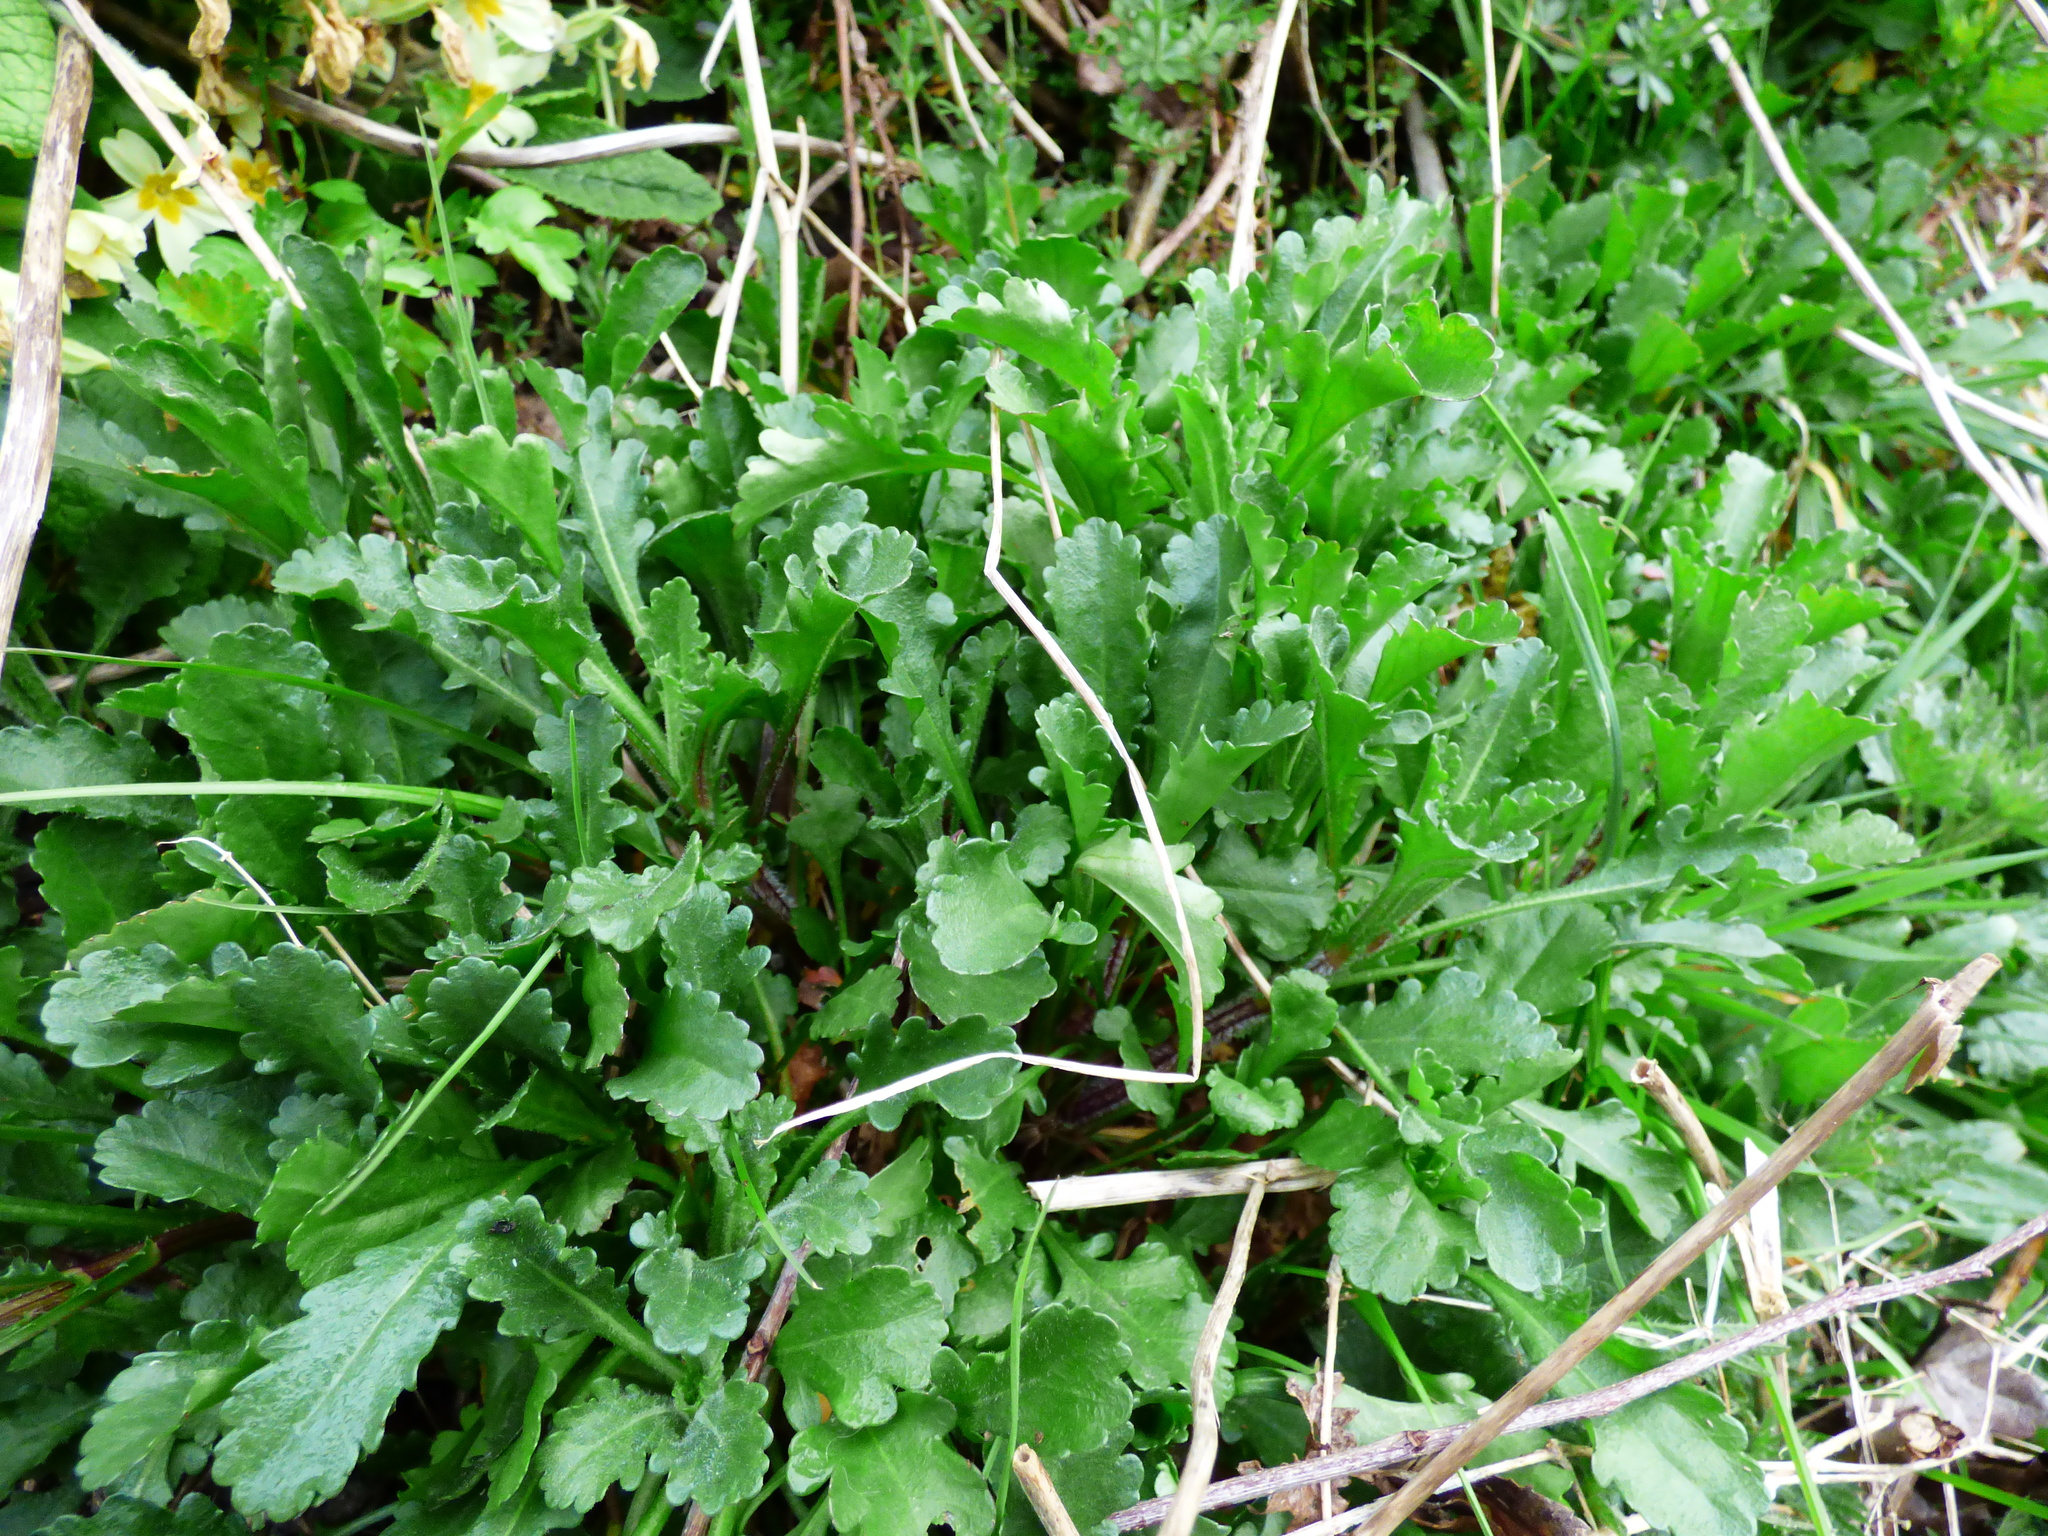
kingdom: Plantae
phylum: Tracheophyta
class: Magnoliopsida
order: Asterales
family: Asteraceae
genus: Leucanthemum
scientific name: Leucanthemum vulgare
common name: Oxeye daisy
